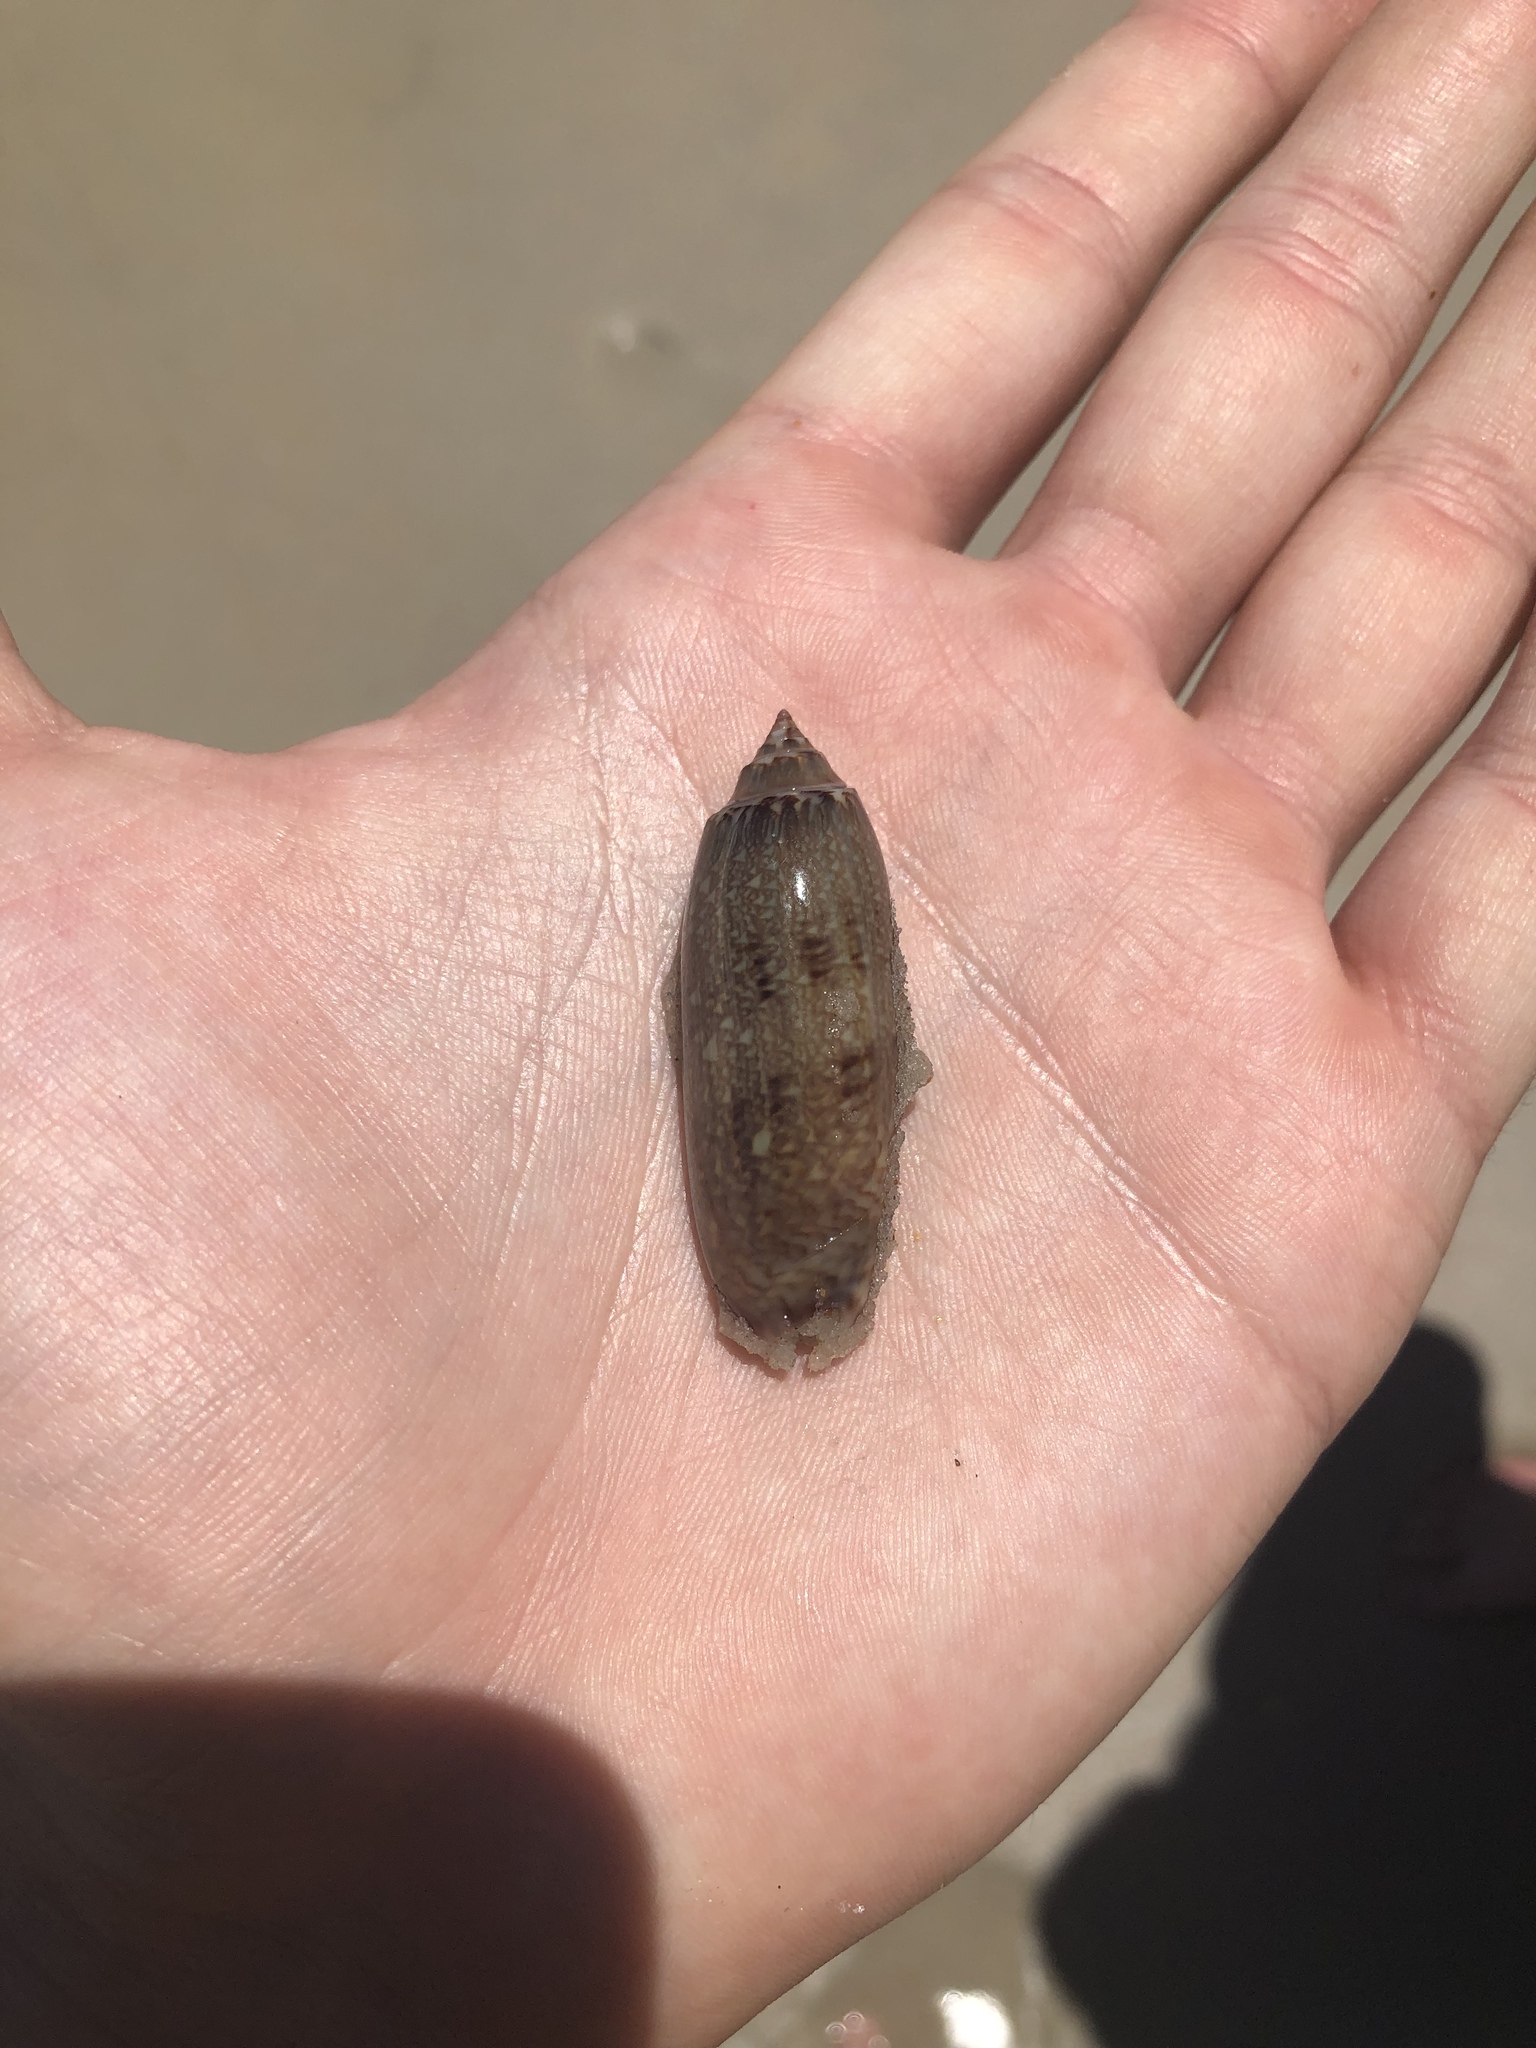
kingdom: Animalia
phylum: Mollusca
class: Gastropoda
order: Neogastropoda
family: Olividae
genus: Oliva
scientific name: Oliva sayana
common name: Lettered olive
